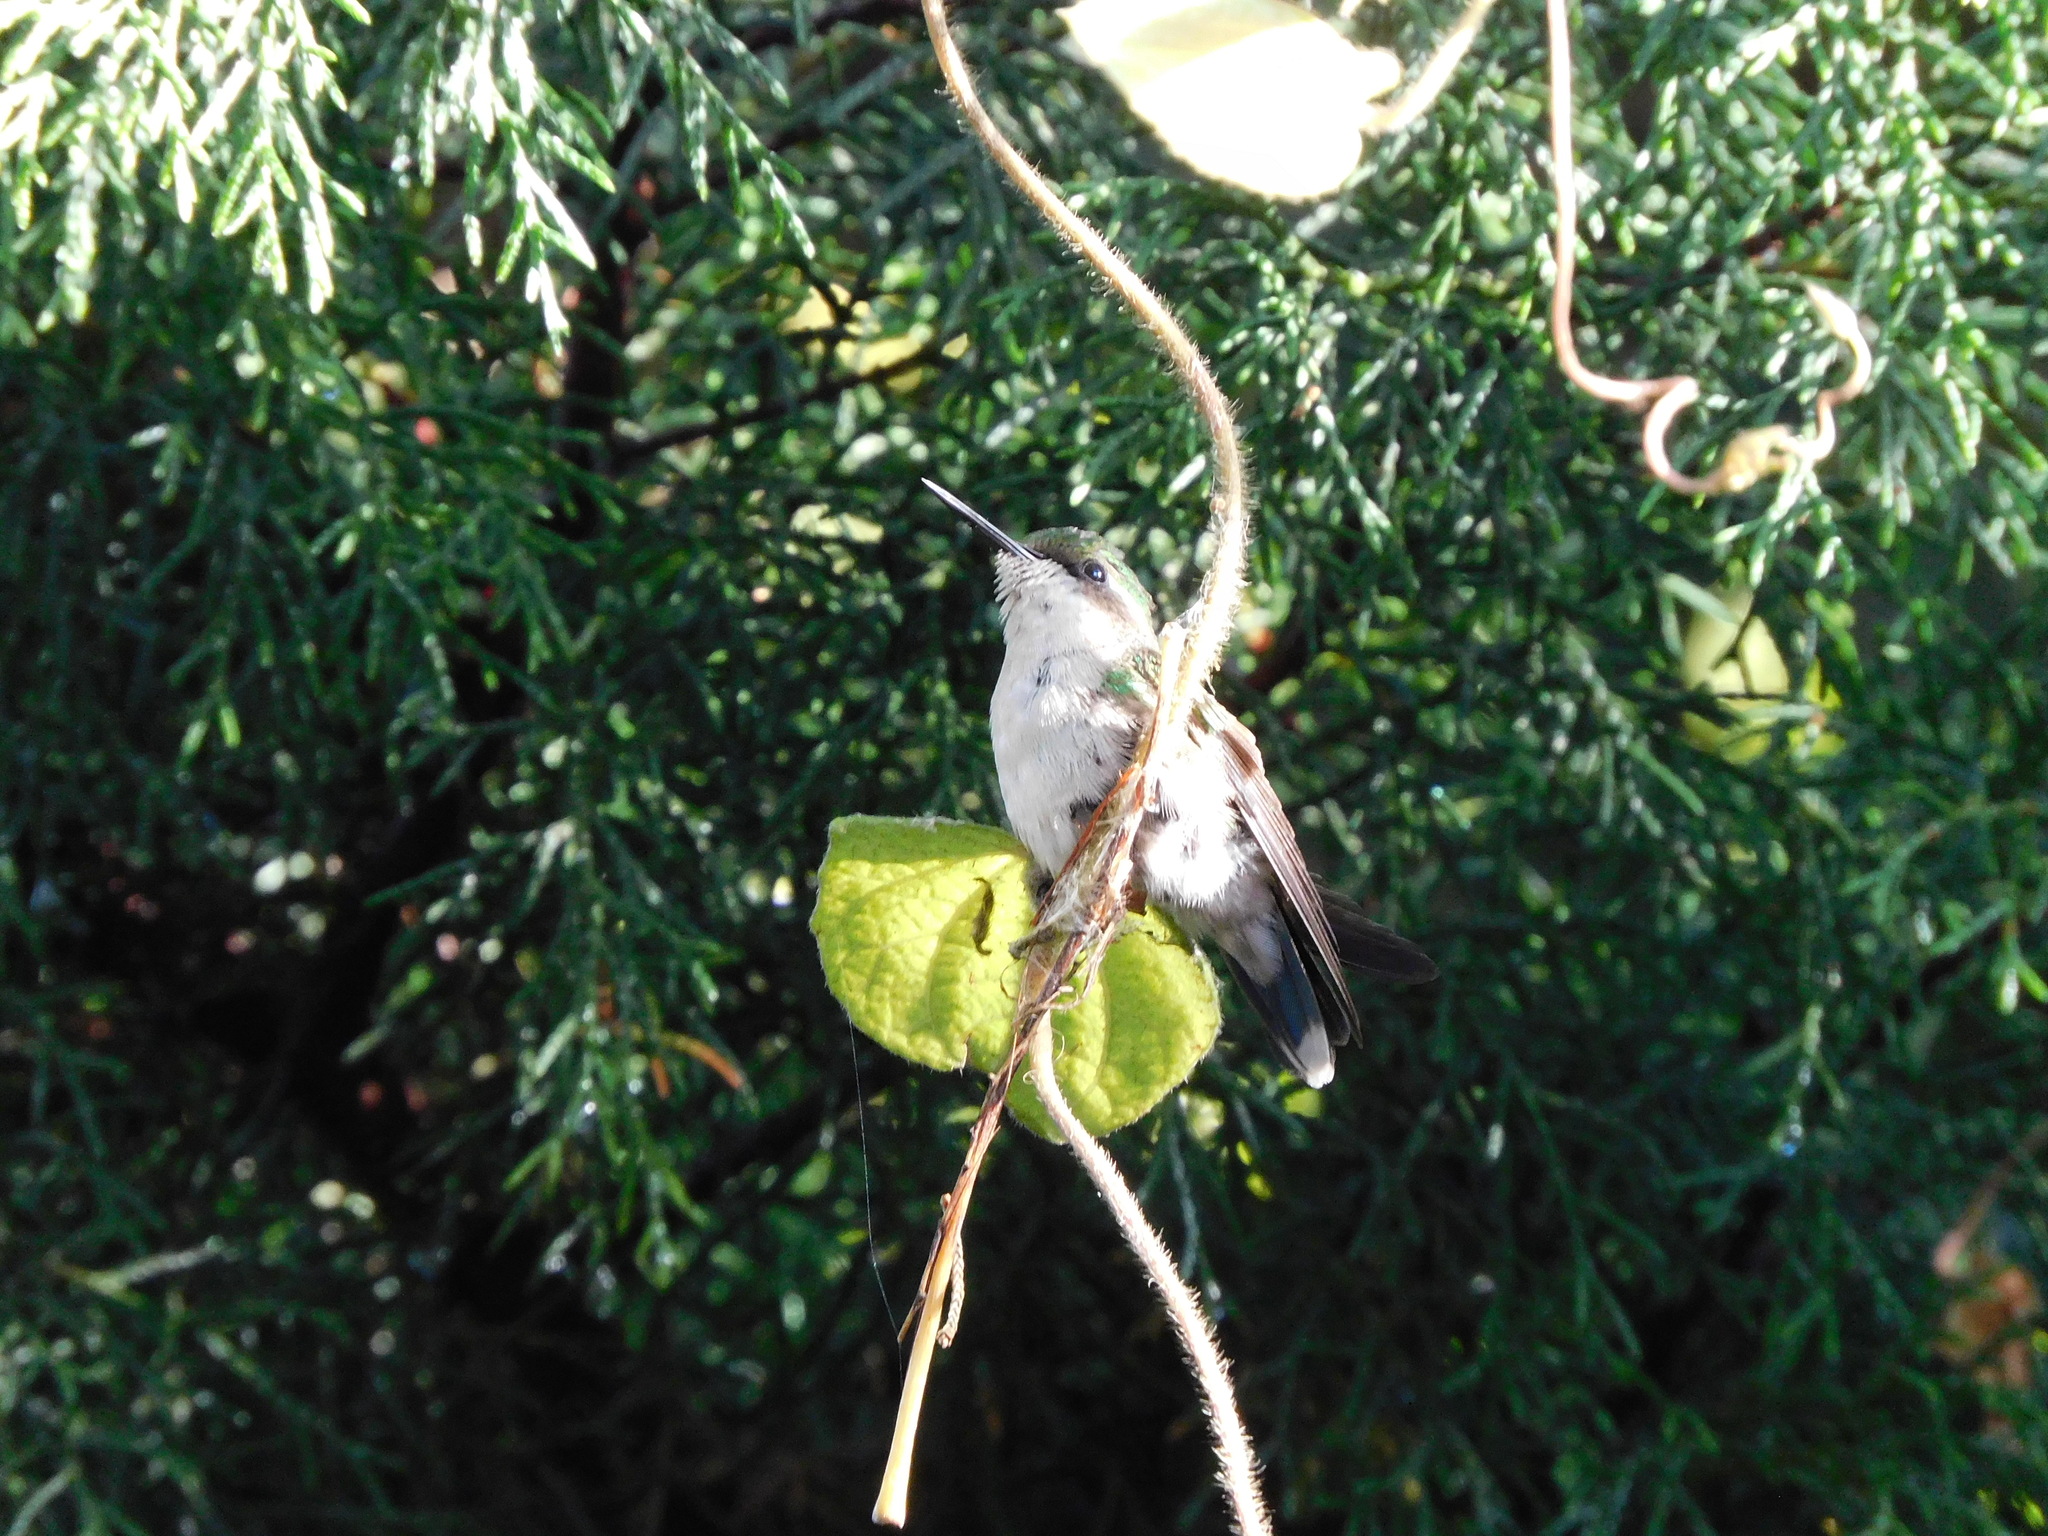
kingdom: Animalia
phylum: Chordata
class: Aves
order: Apodiformes
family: Trochilidae
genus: Chlorostilbon
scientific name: Chlorostilbon melanorhynchus
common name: Western emerald
